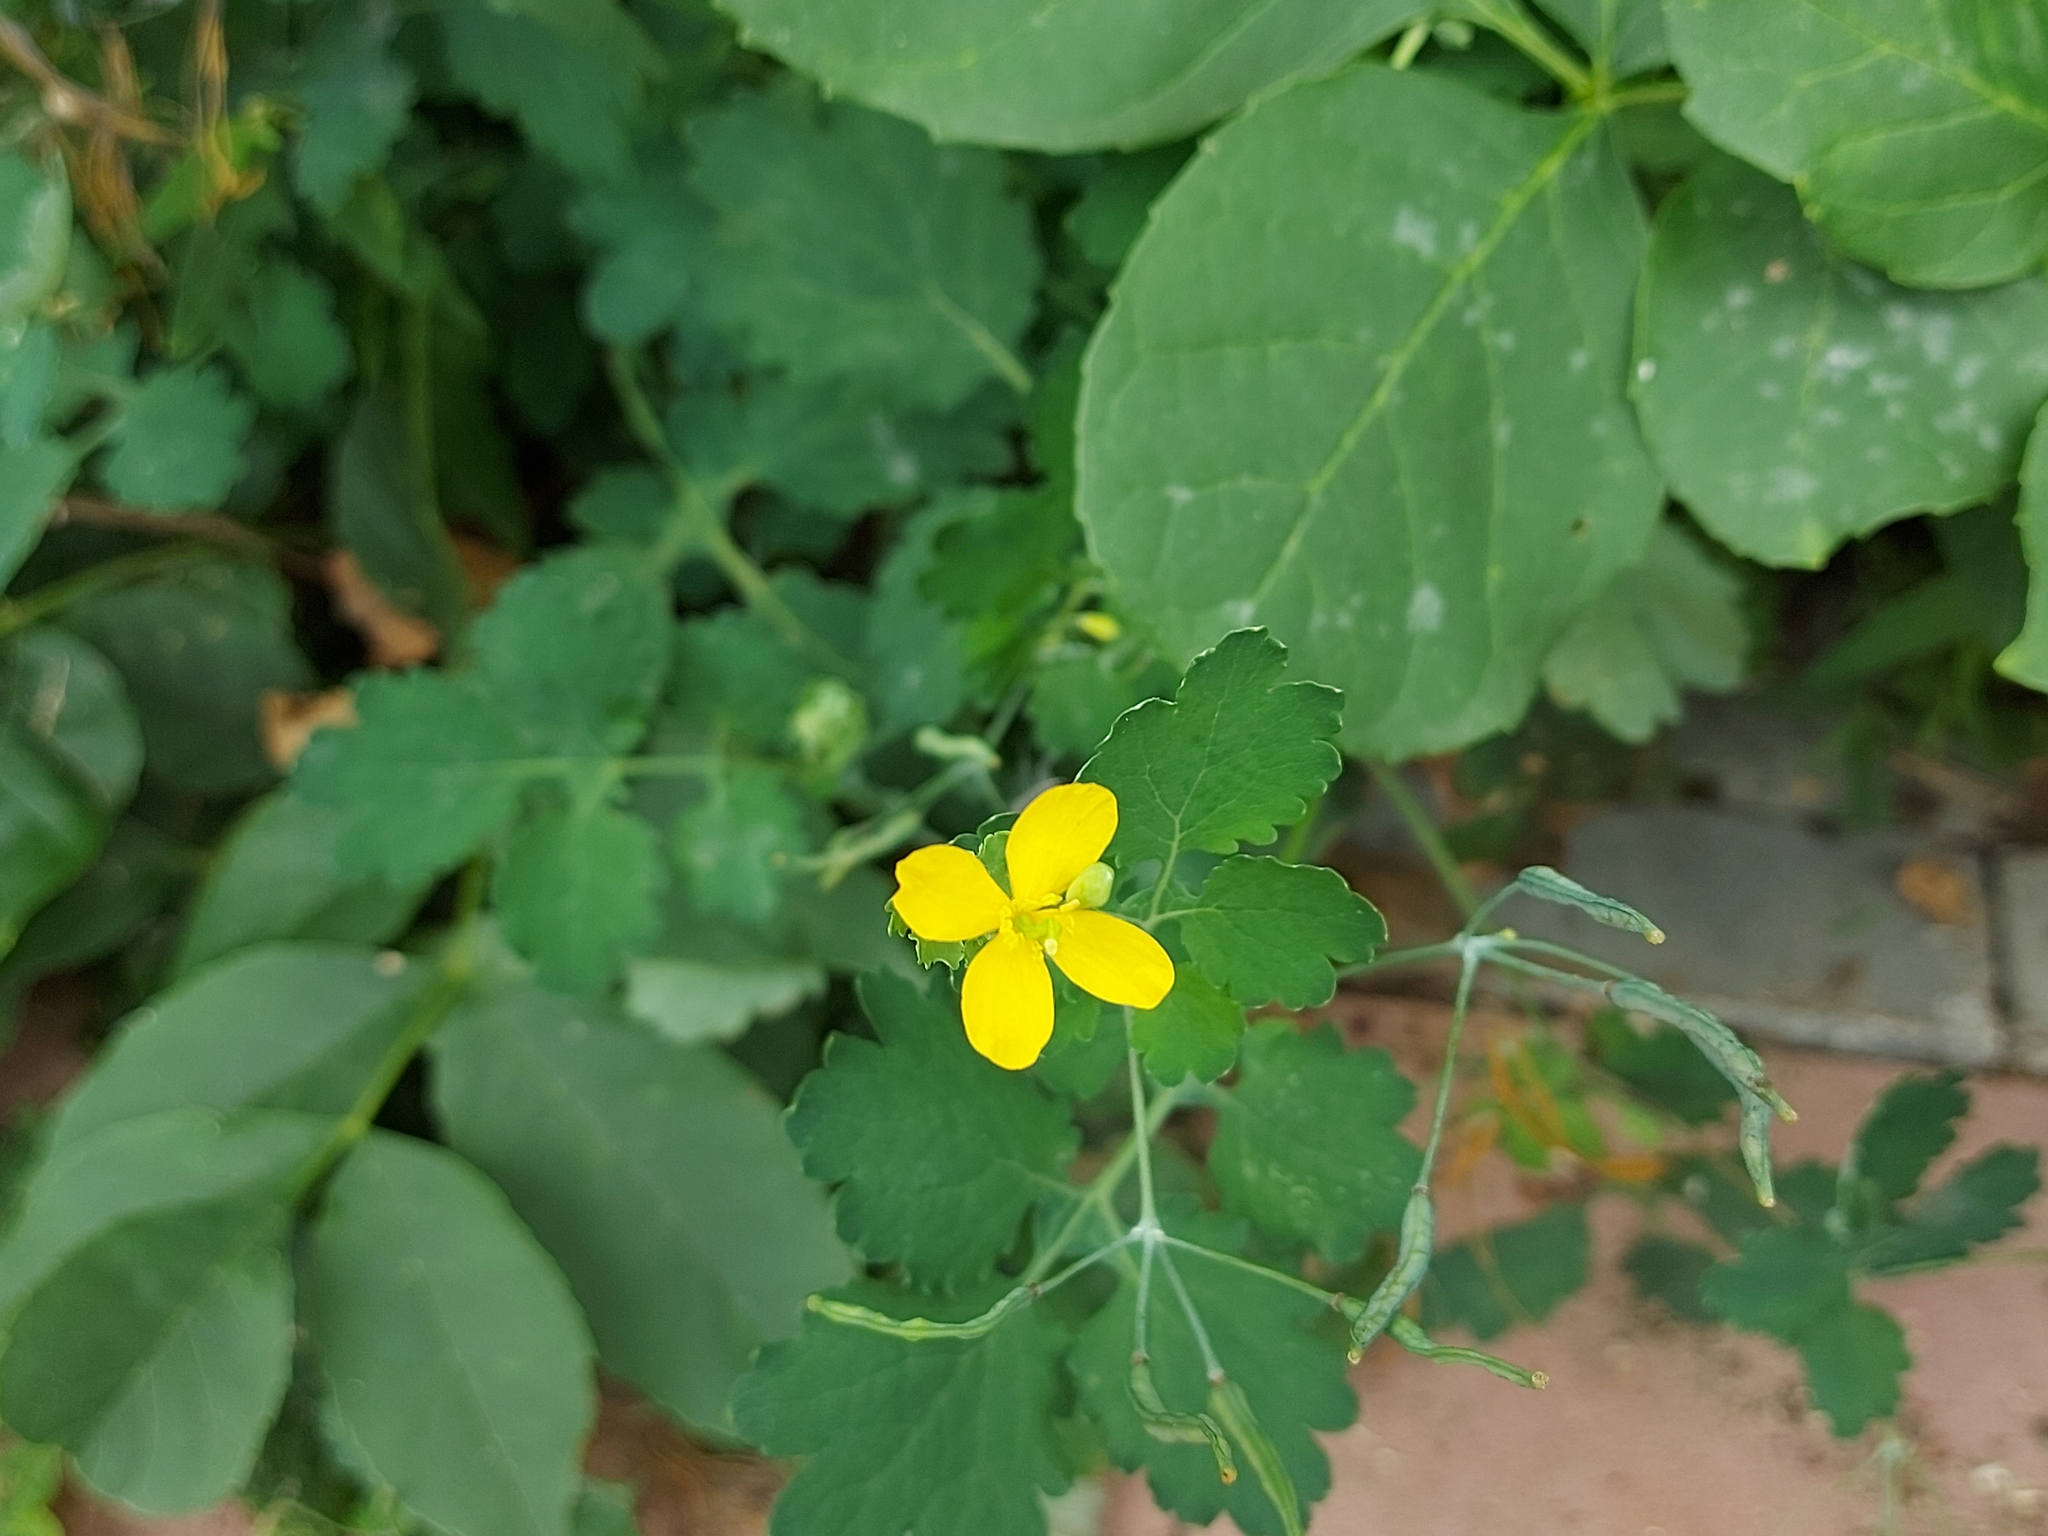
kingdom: Plantae
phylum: Tracheophyta
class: Magnoliopsida
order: Ranunculales
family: Papaveraceae
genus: Chelidonium
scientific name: Chelidonium majus
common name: Greater celandine
